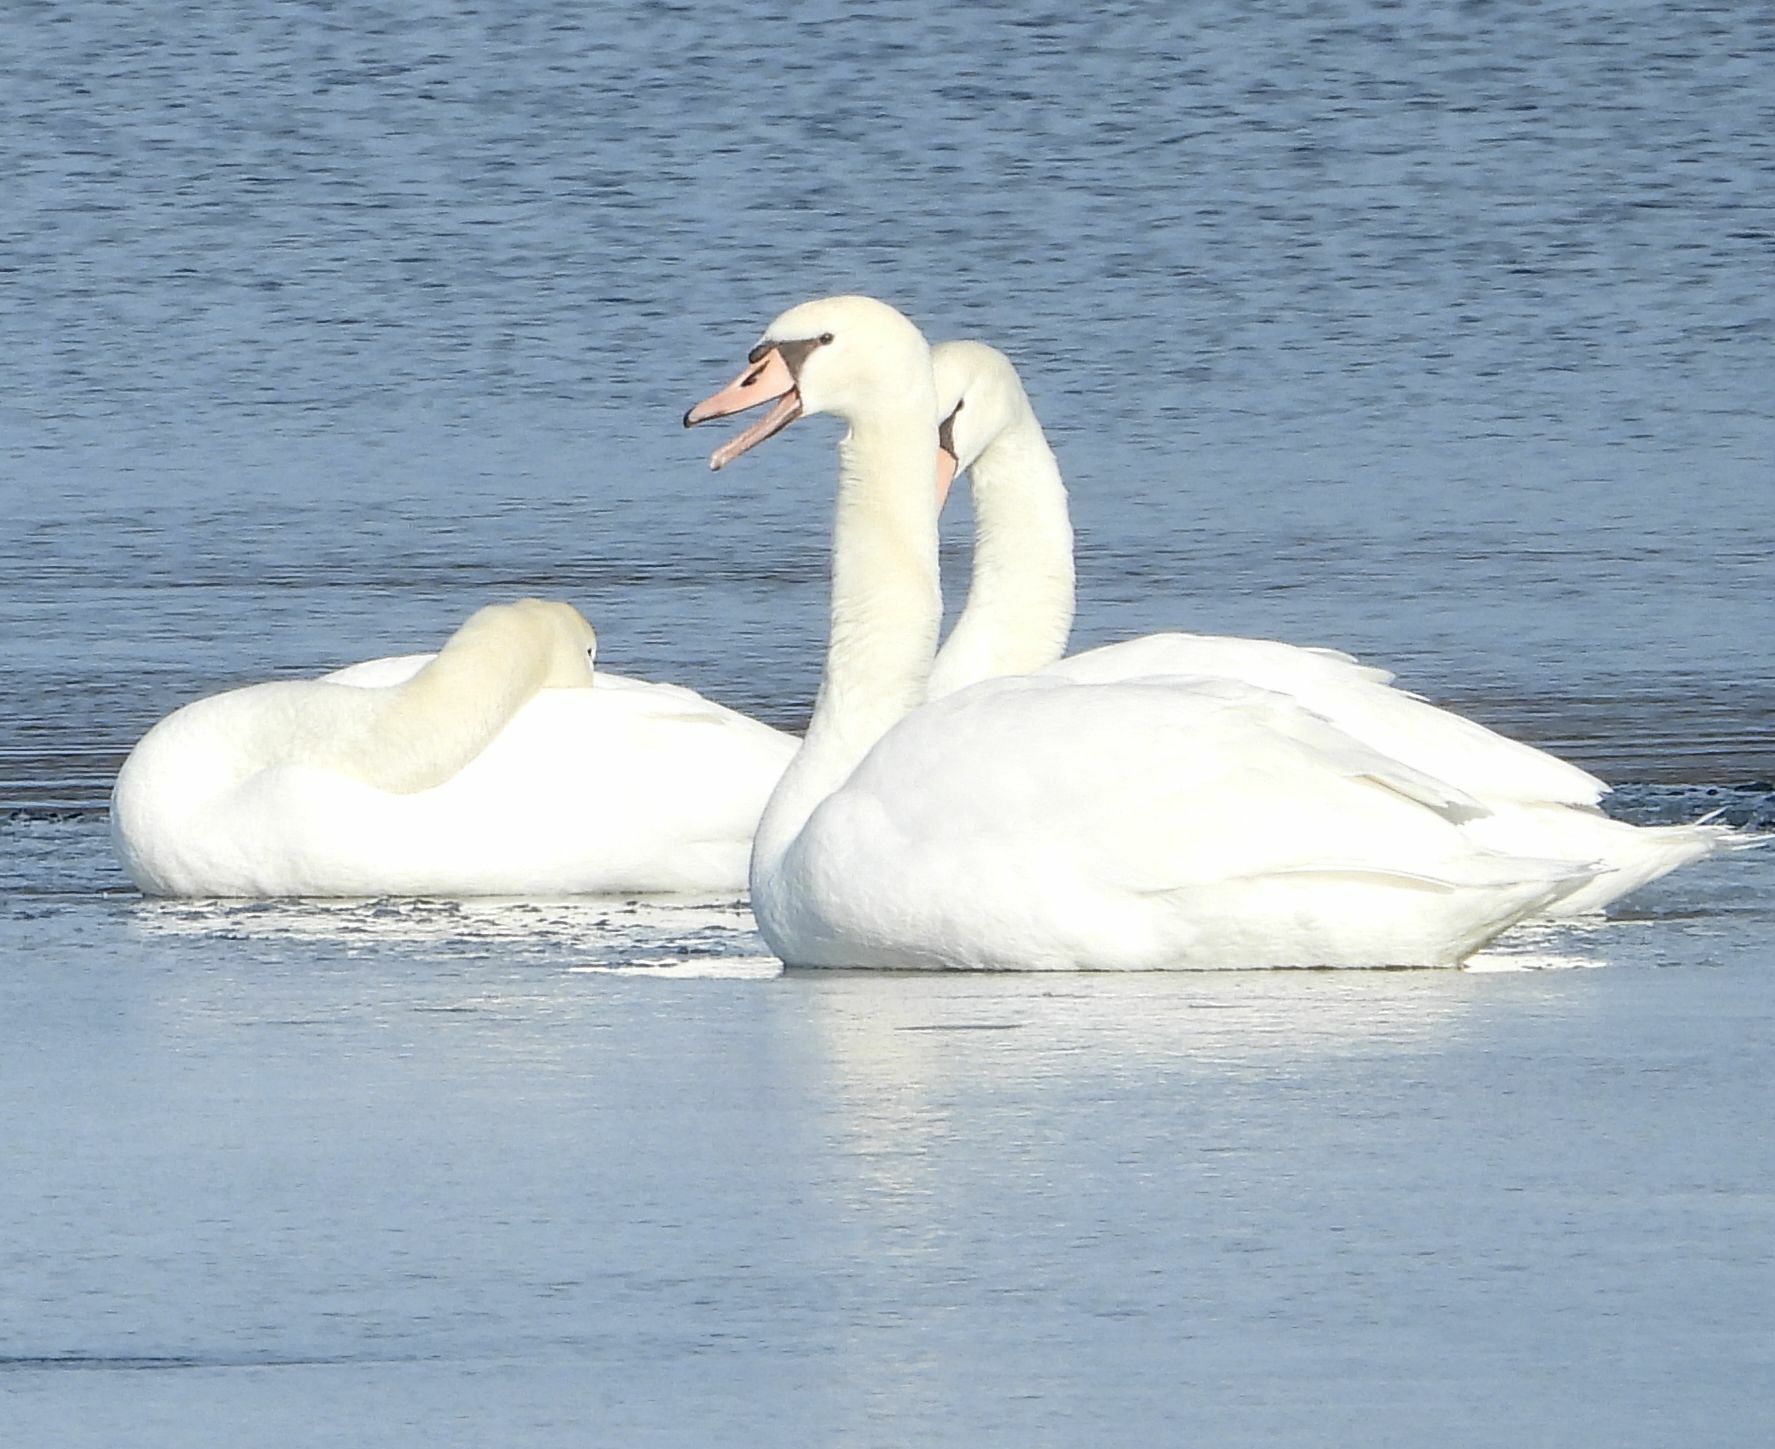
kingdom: Animalia
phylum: Chordata
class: Aves
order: Anseriformes
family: Anatidae
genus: Cygnus
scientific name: Cygnus olor
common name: Mute swan
